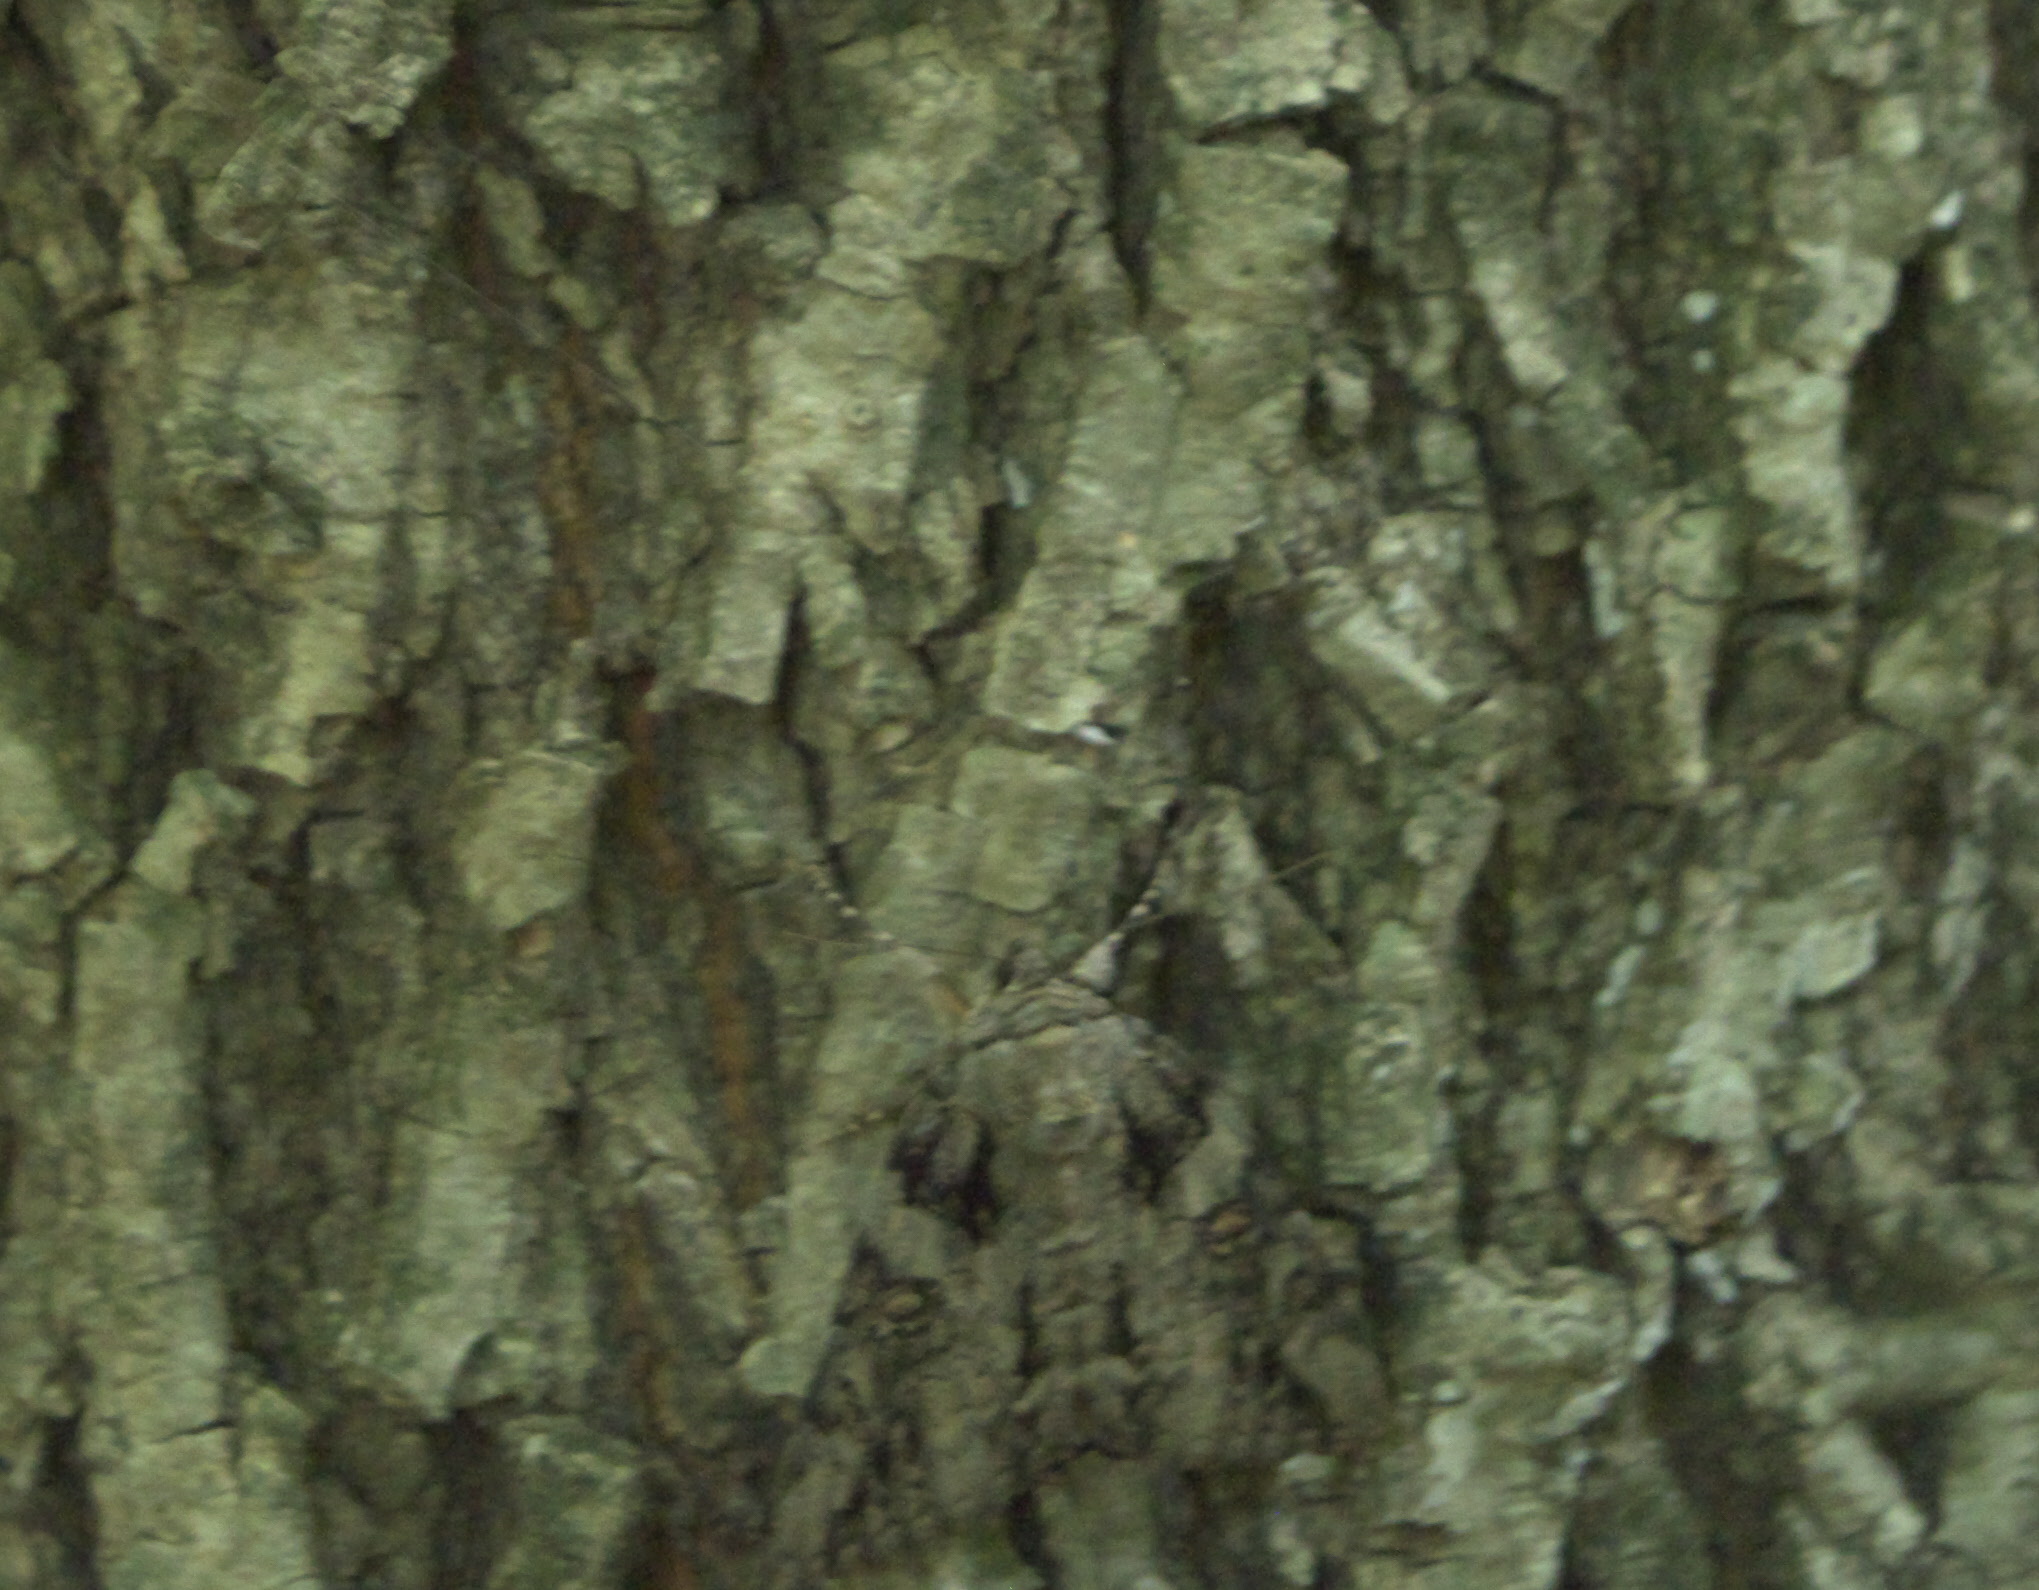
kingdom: Animalia
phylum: Arthropoda
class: Insecta
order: Lepidoptera
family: Erebidae
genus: Catocala
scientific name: Catocala neogama
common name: Bride underwing
